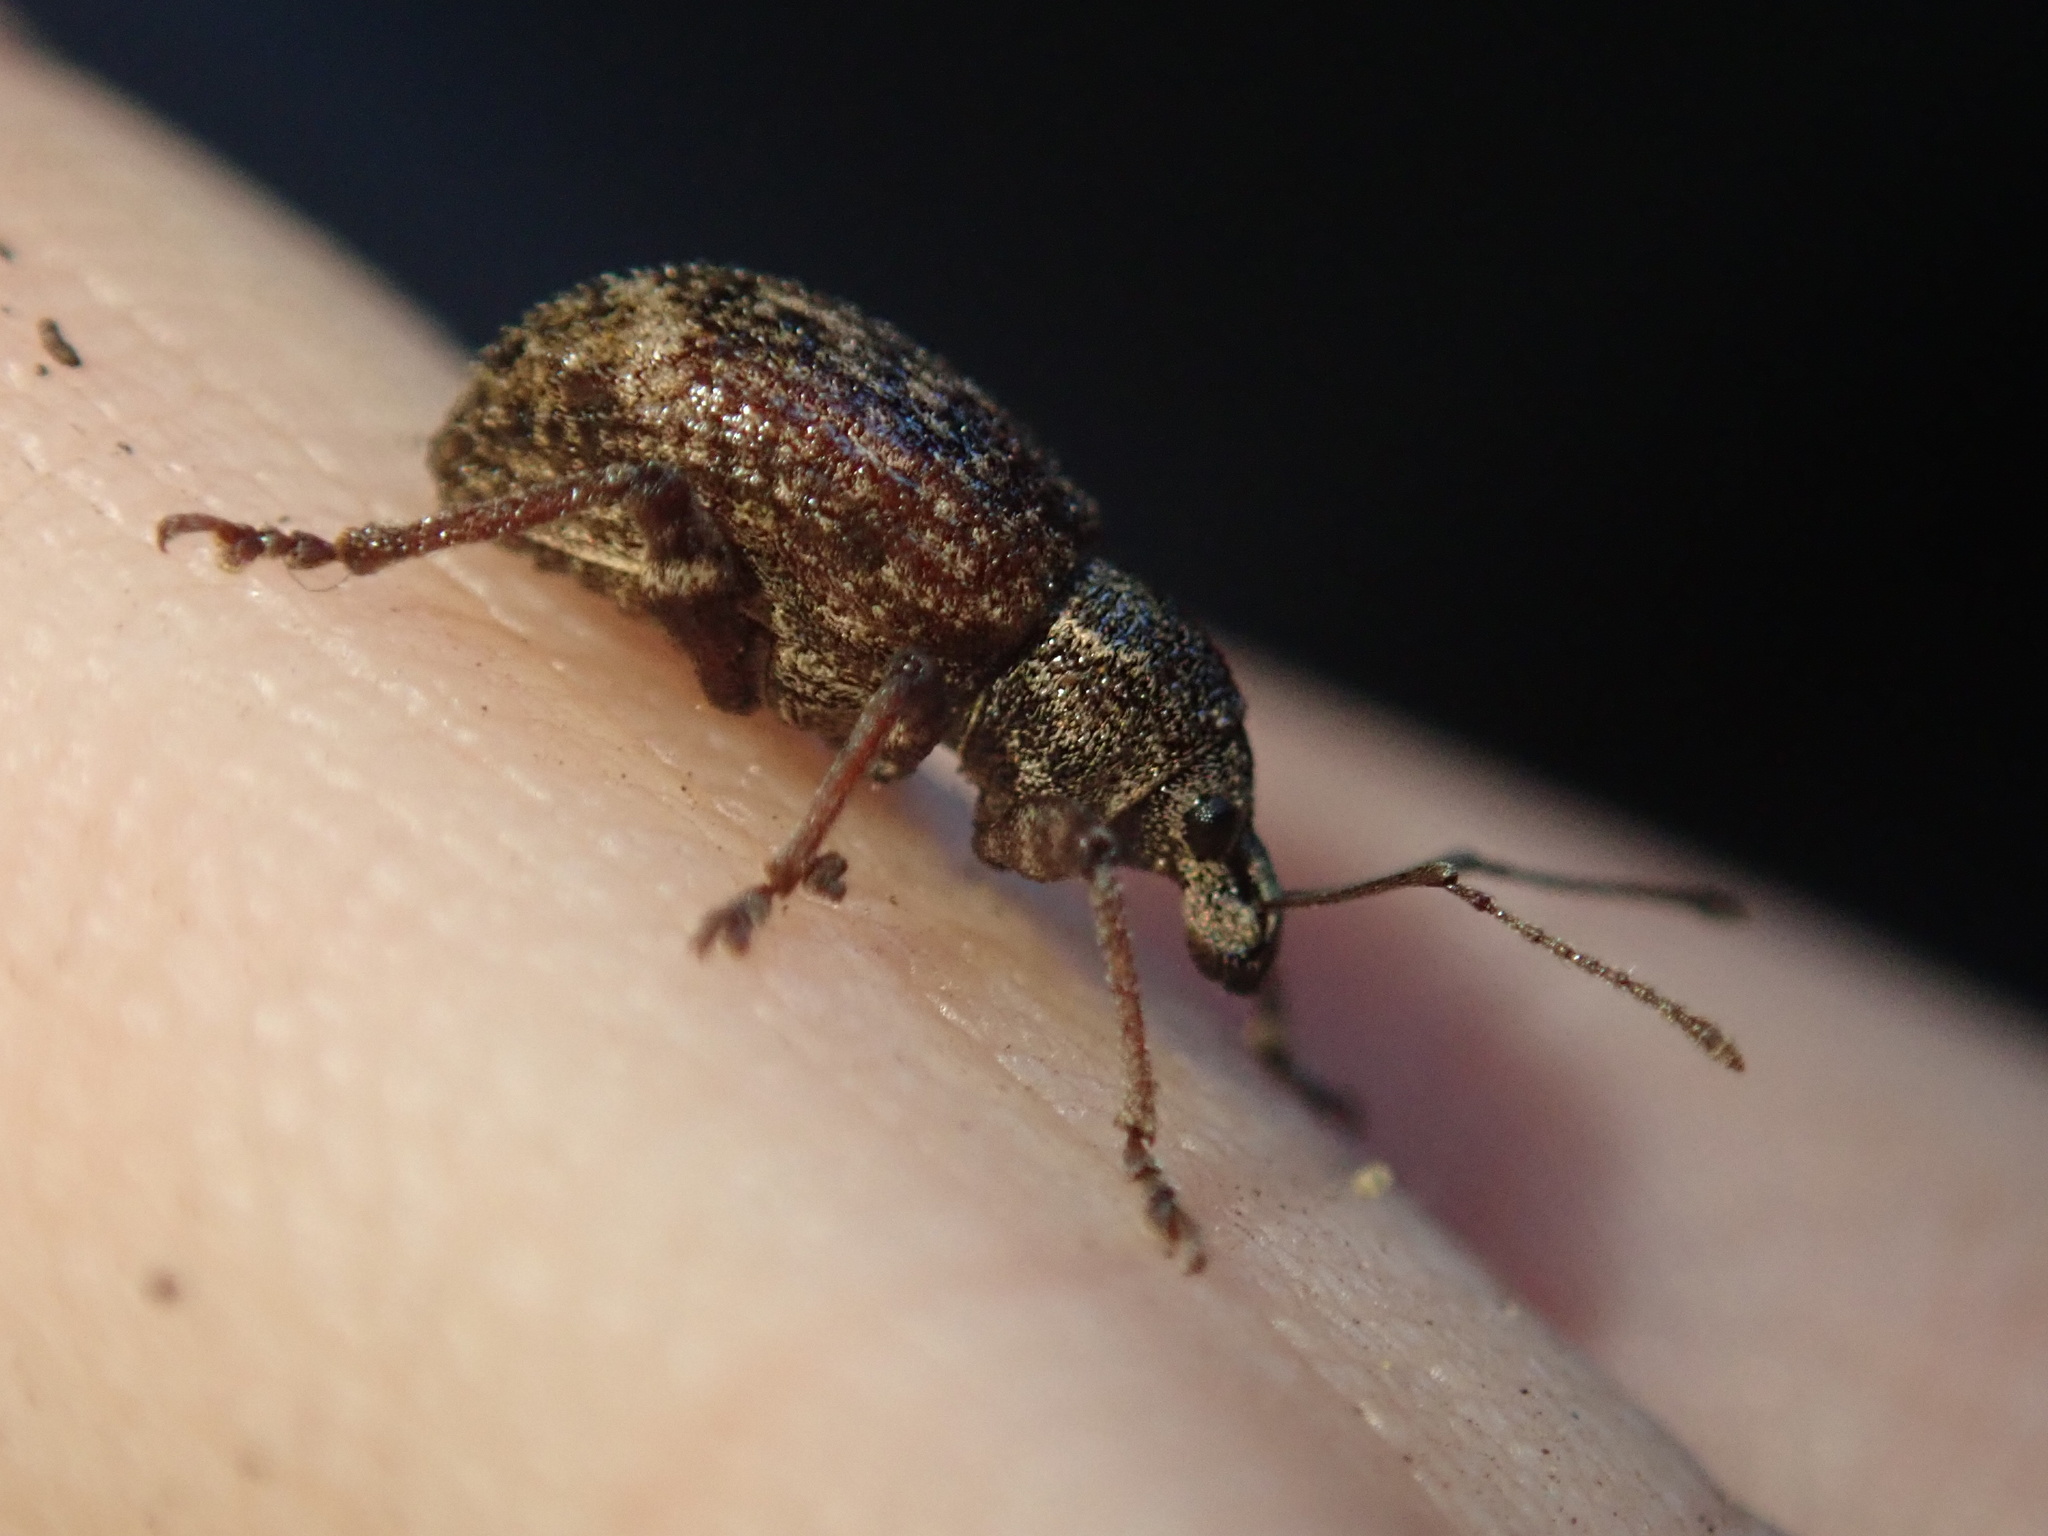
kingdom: Animalia
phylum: Arthropoda
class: Insecta
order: Coleoptera
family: Curculionidae
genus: Phlyctinus
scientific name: Phlyctinus callosus
